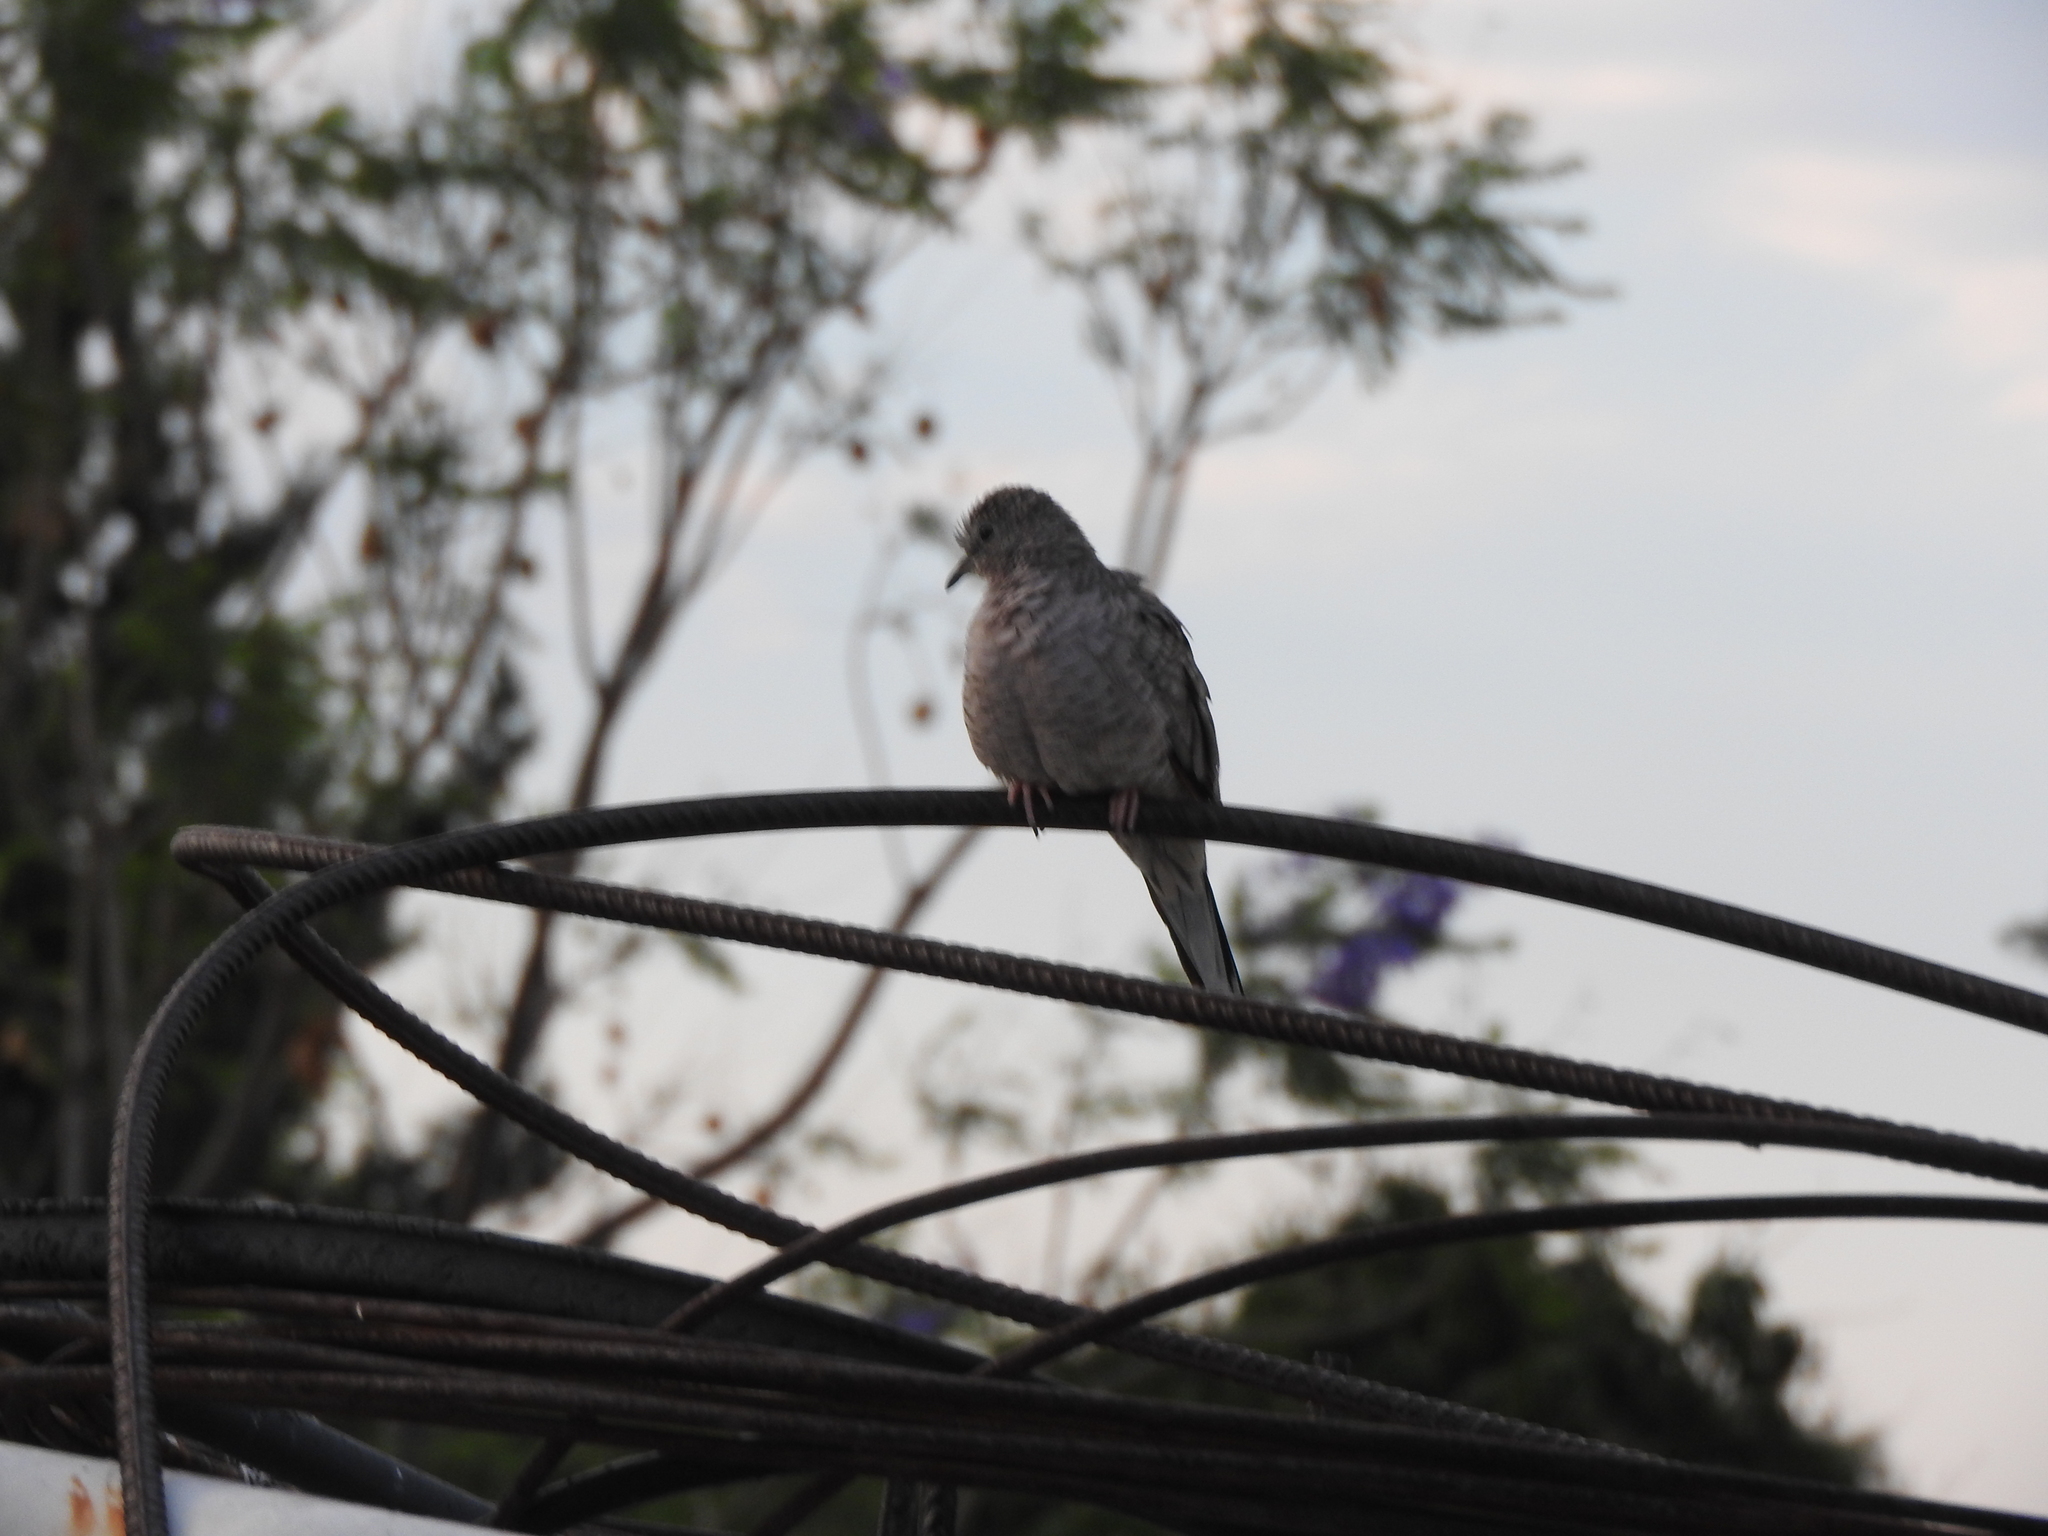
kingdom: Animalia
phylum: Chordata
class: Aves
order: Columbiformes
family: Columbidae
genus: Columbina
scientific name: Columbina inca
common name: Inca dove
